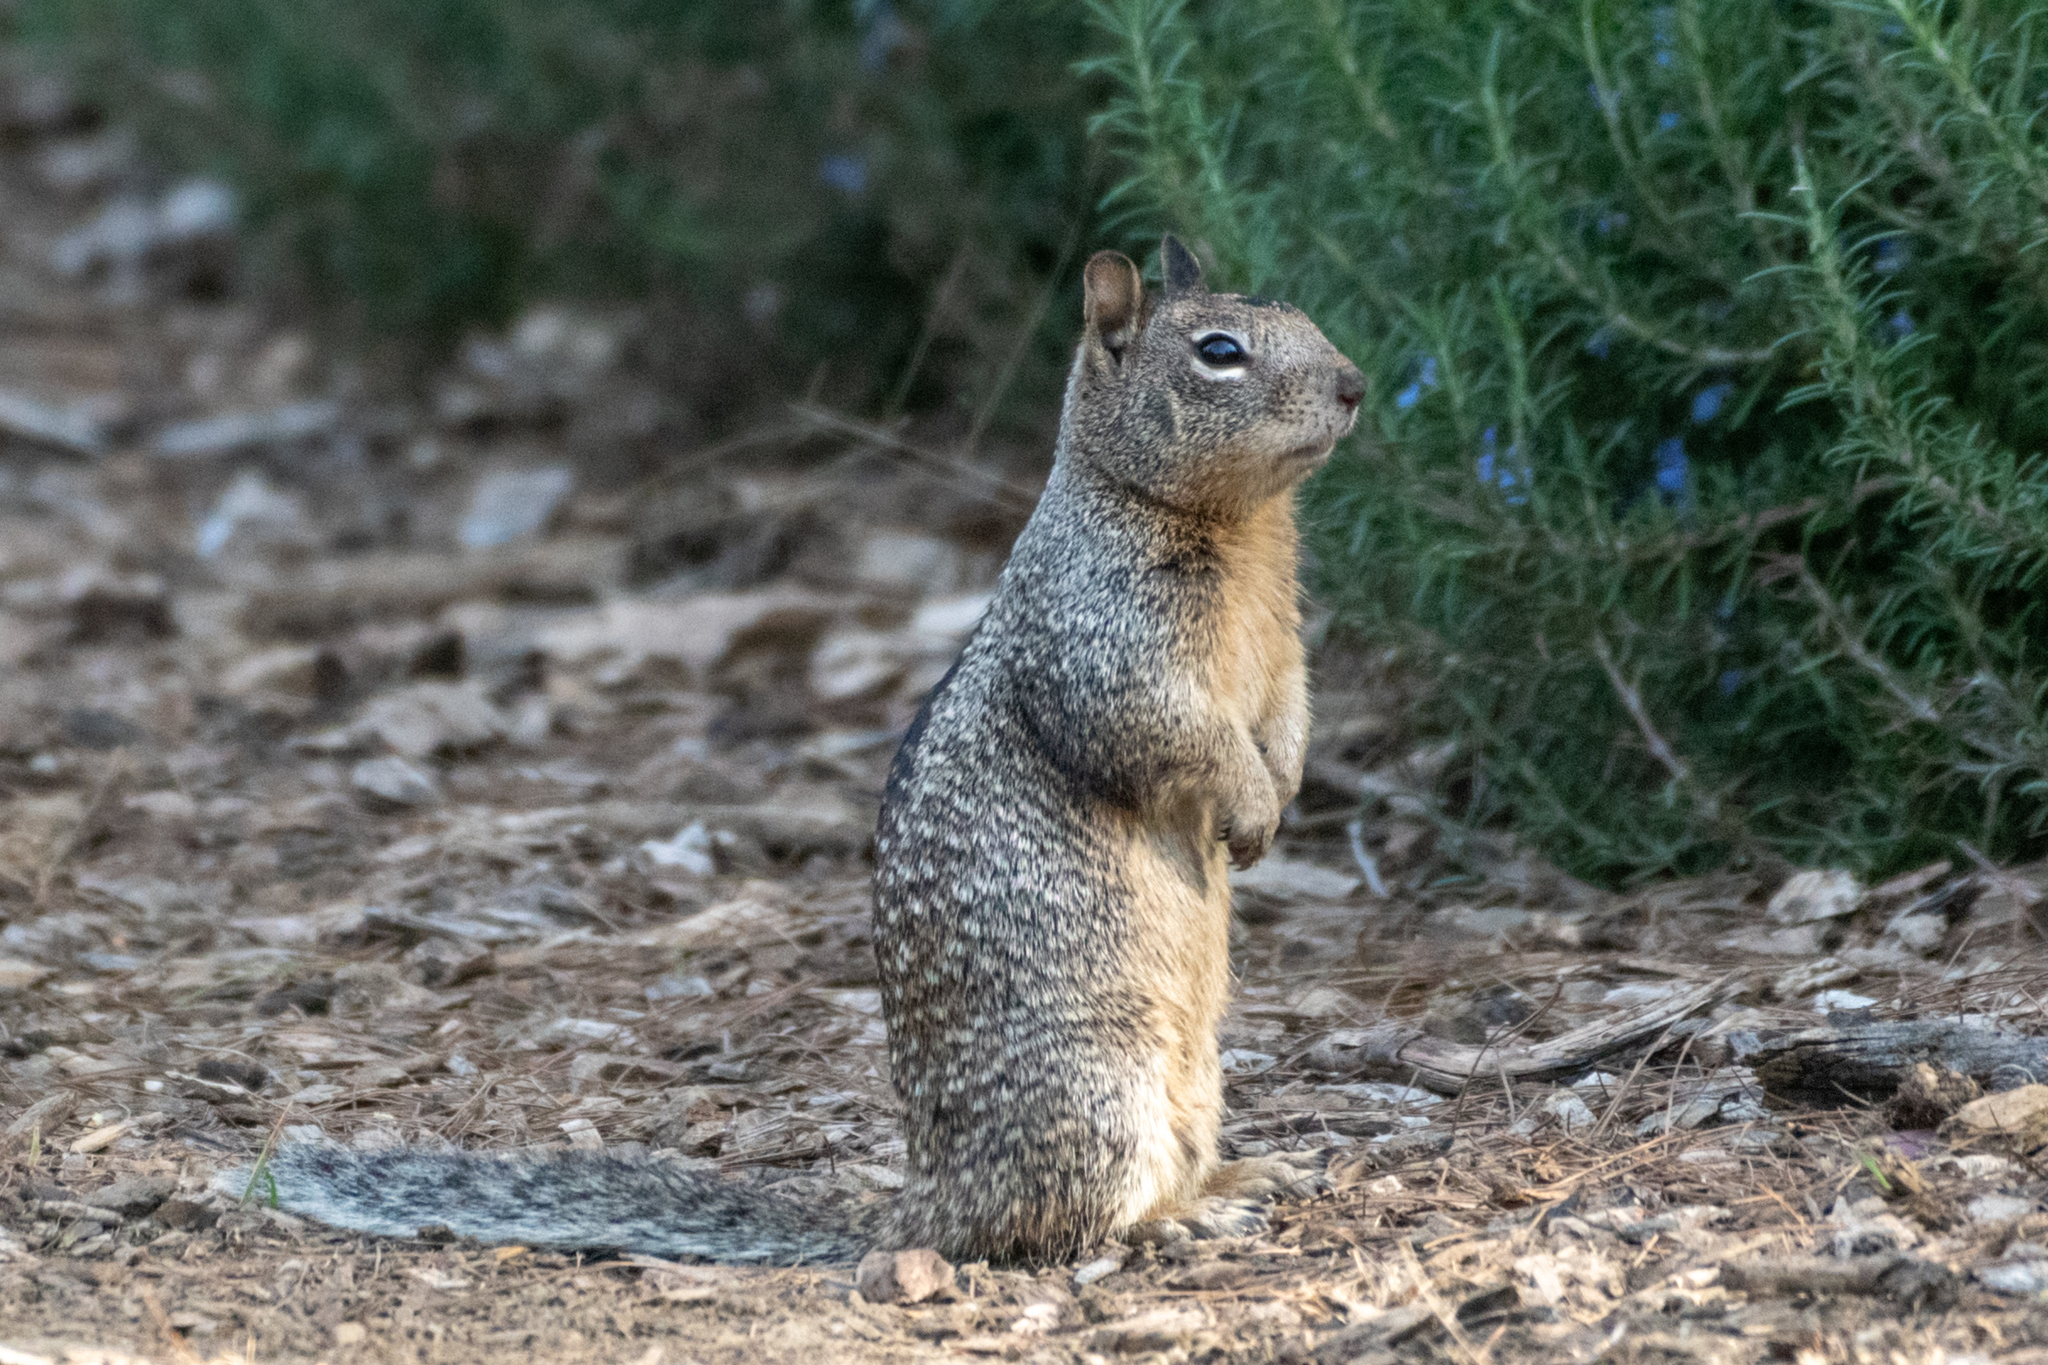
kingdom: Animalia
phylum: Chordata
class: Mammalia
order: Rodentia
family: Sciuridae
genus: Otospermophilus
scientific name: Otospermophilus beecheyi
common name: California ground squirrel
